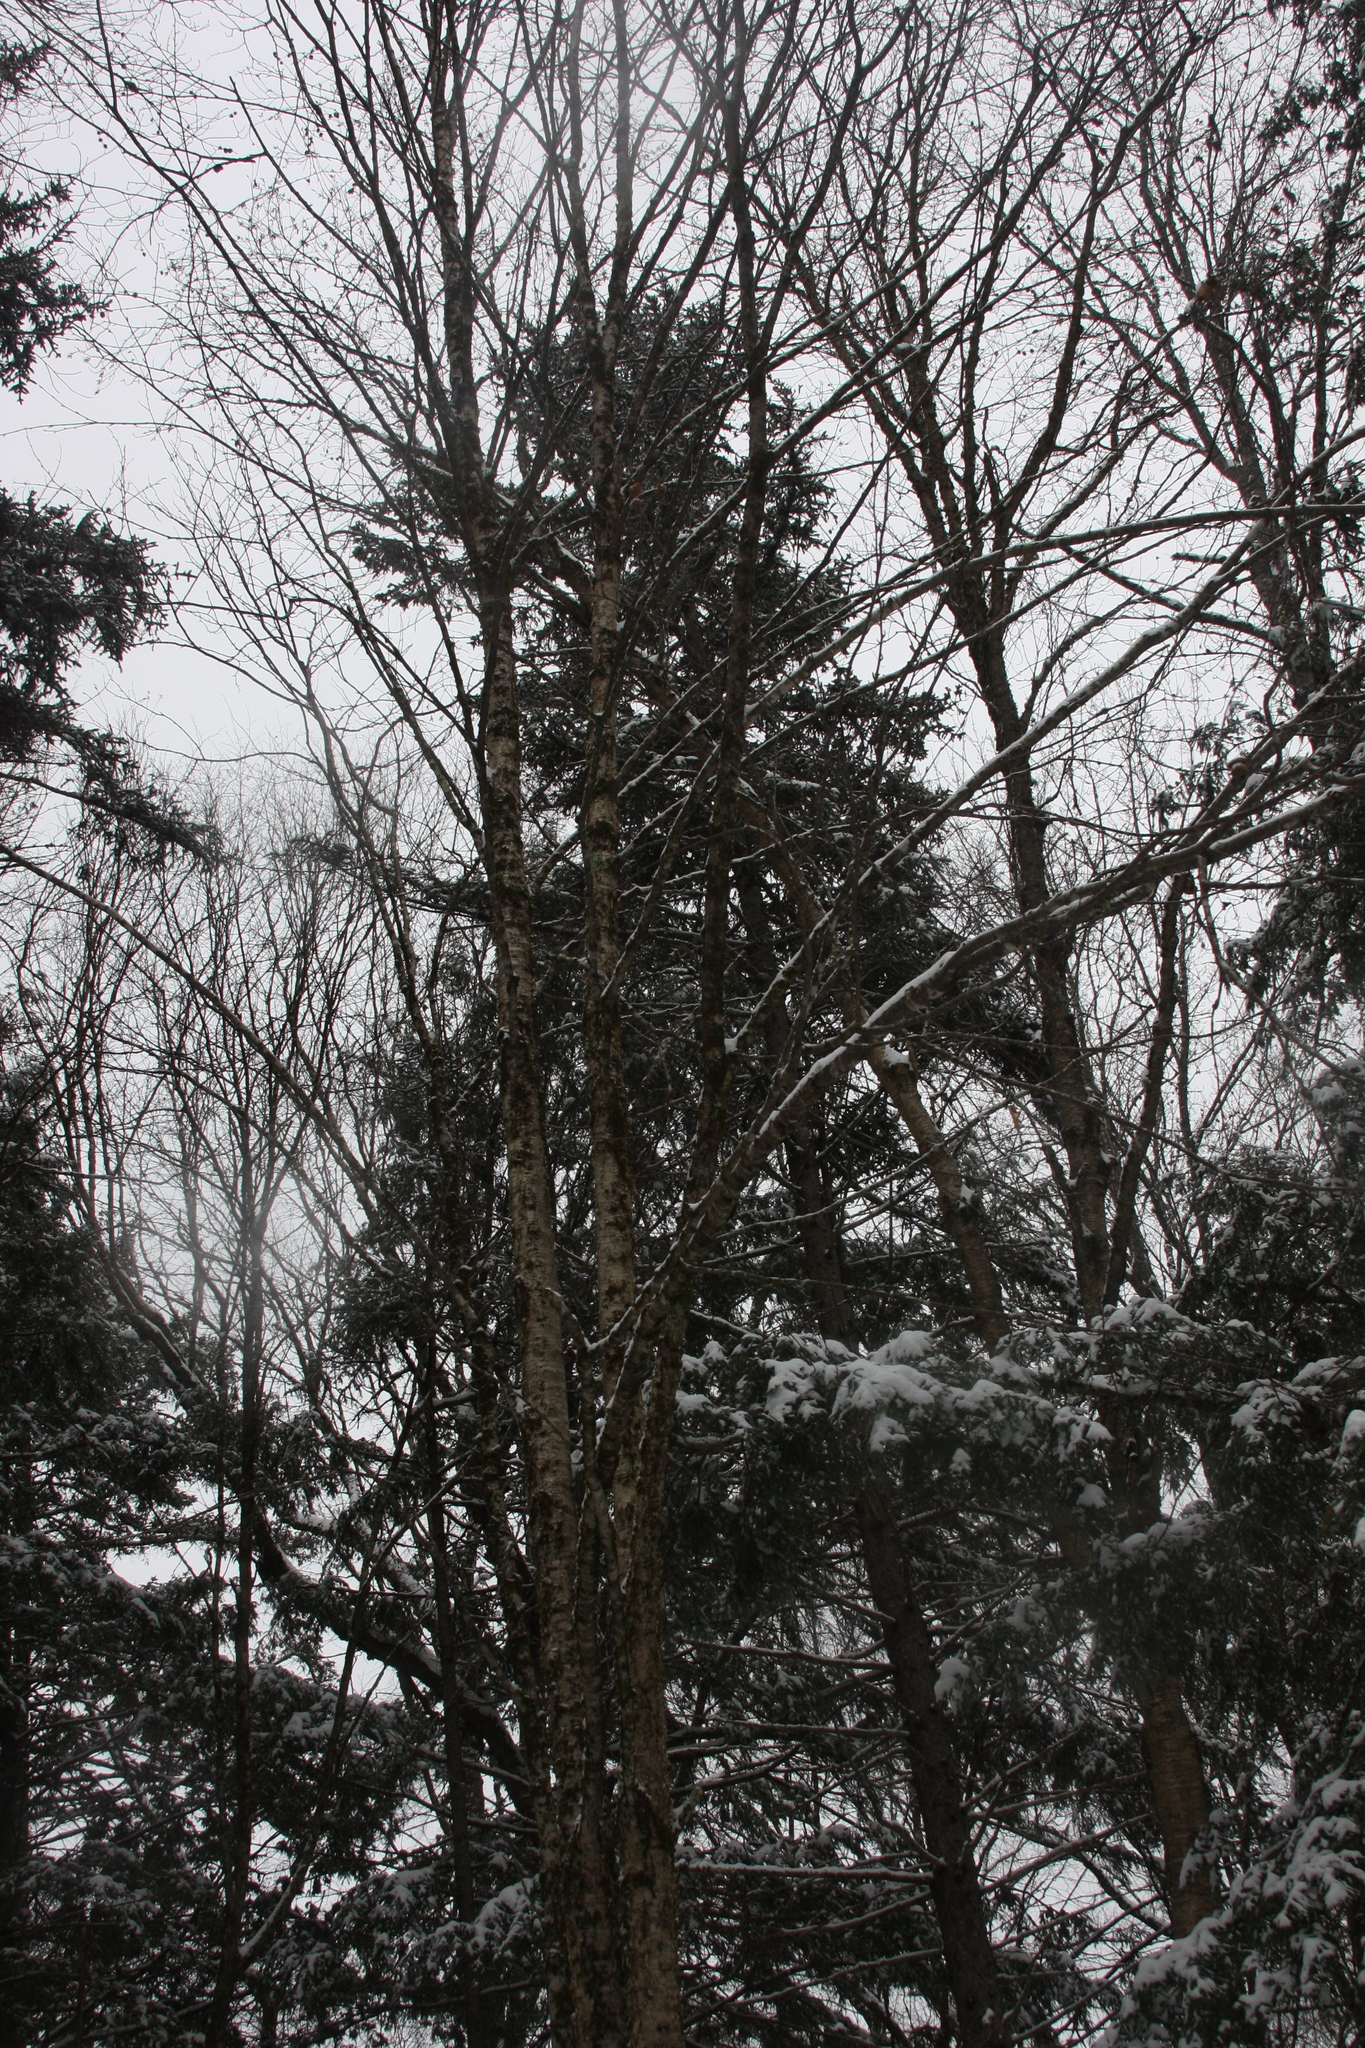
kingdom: Plantae
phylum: Tracheophyta
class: Magnoliopsida
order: Fagales
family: Betulaceae
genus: Betula
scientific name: Betula alleghaniensis
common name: Yellow birch
